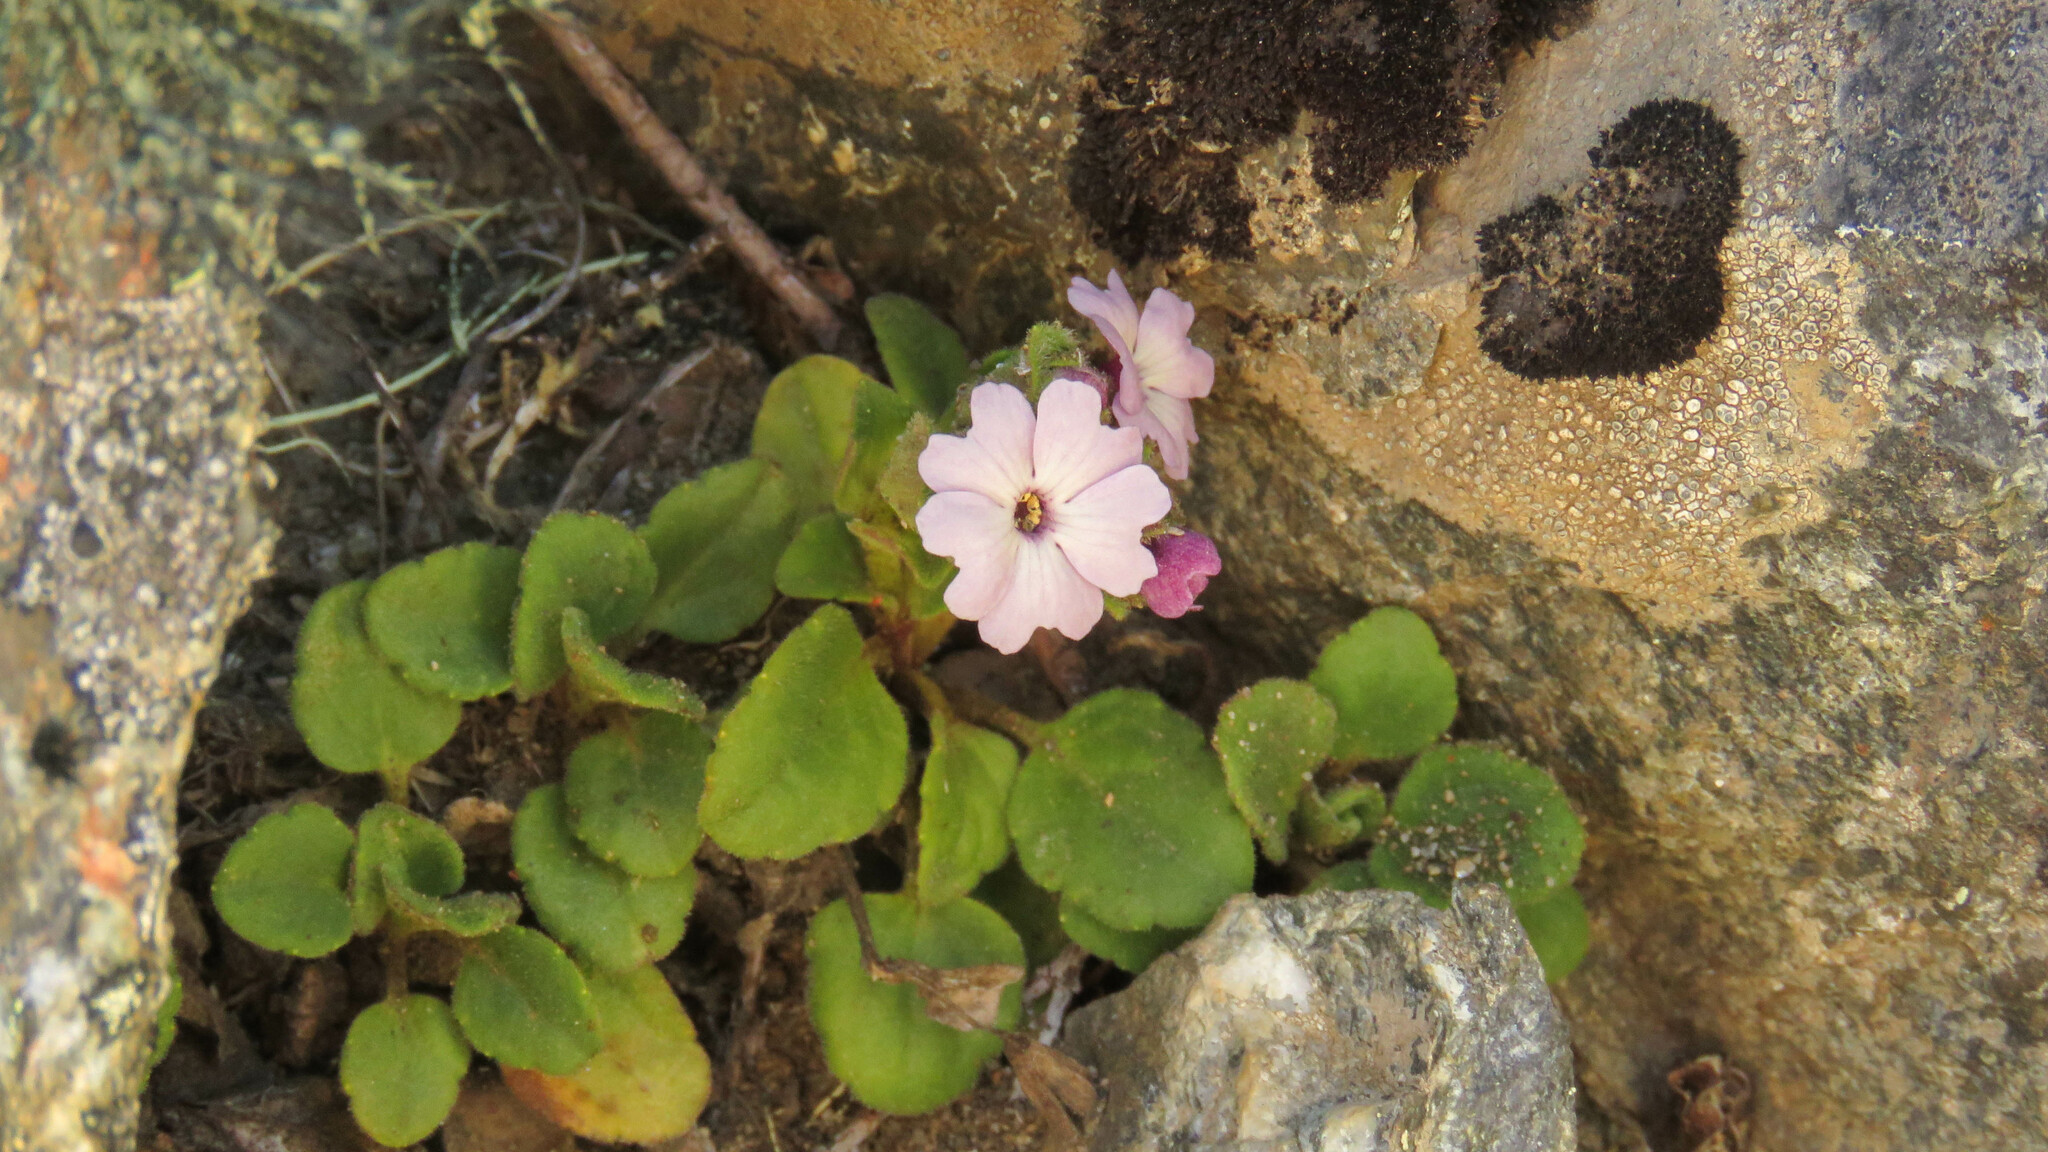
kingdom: Plantae
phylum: Tracheophyta
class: Magnoliopsida
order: Lamiales
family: Plantaginaceae
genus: Ourisia
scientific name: Ourisia fragrans
